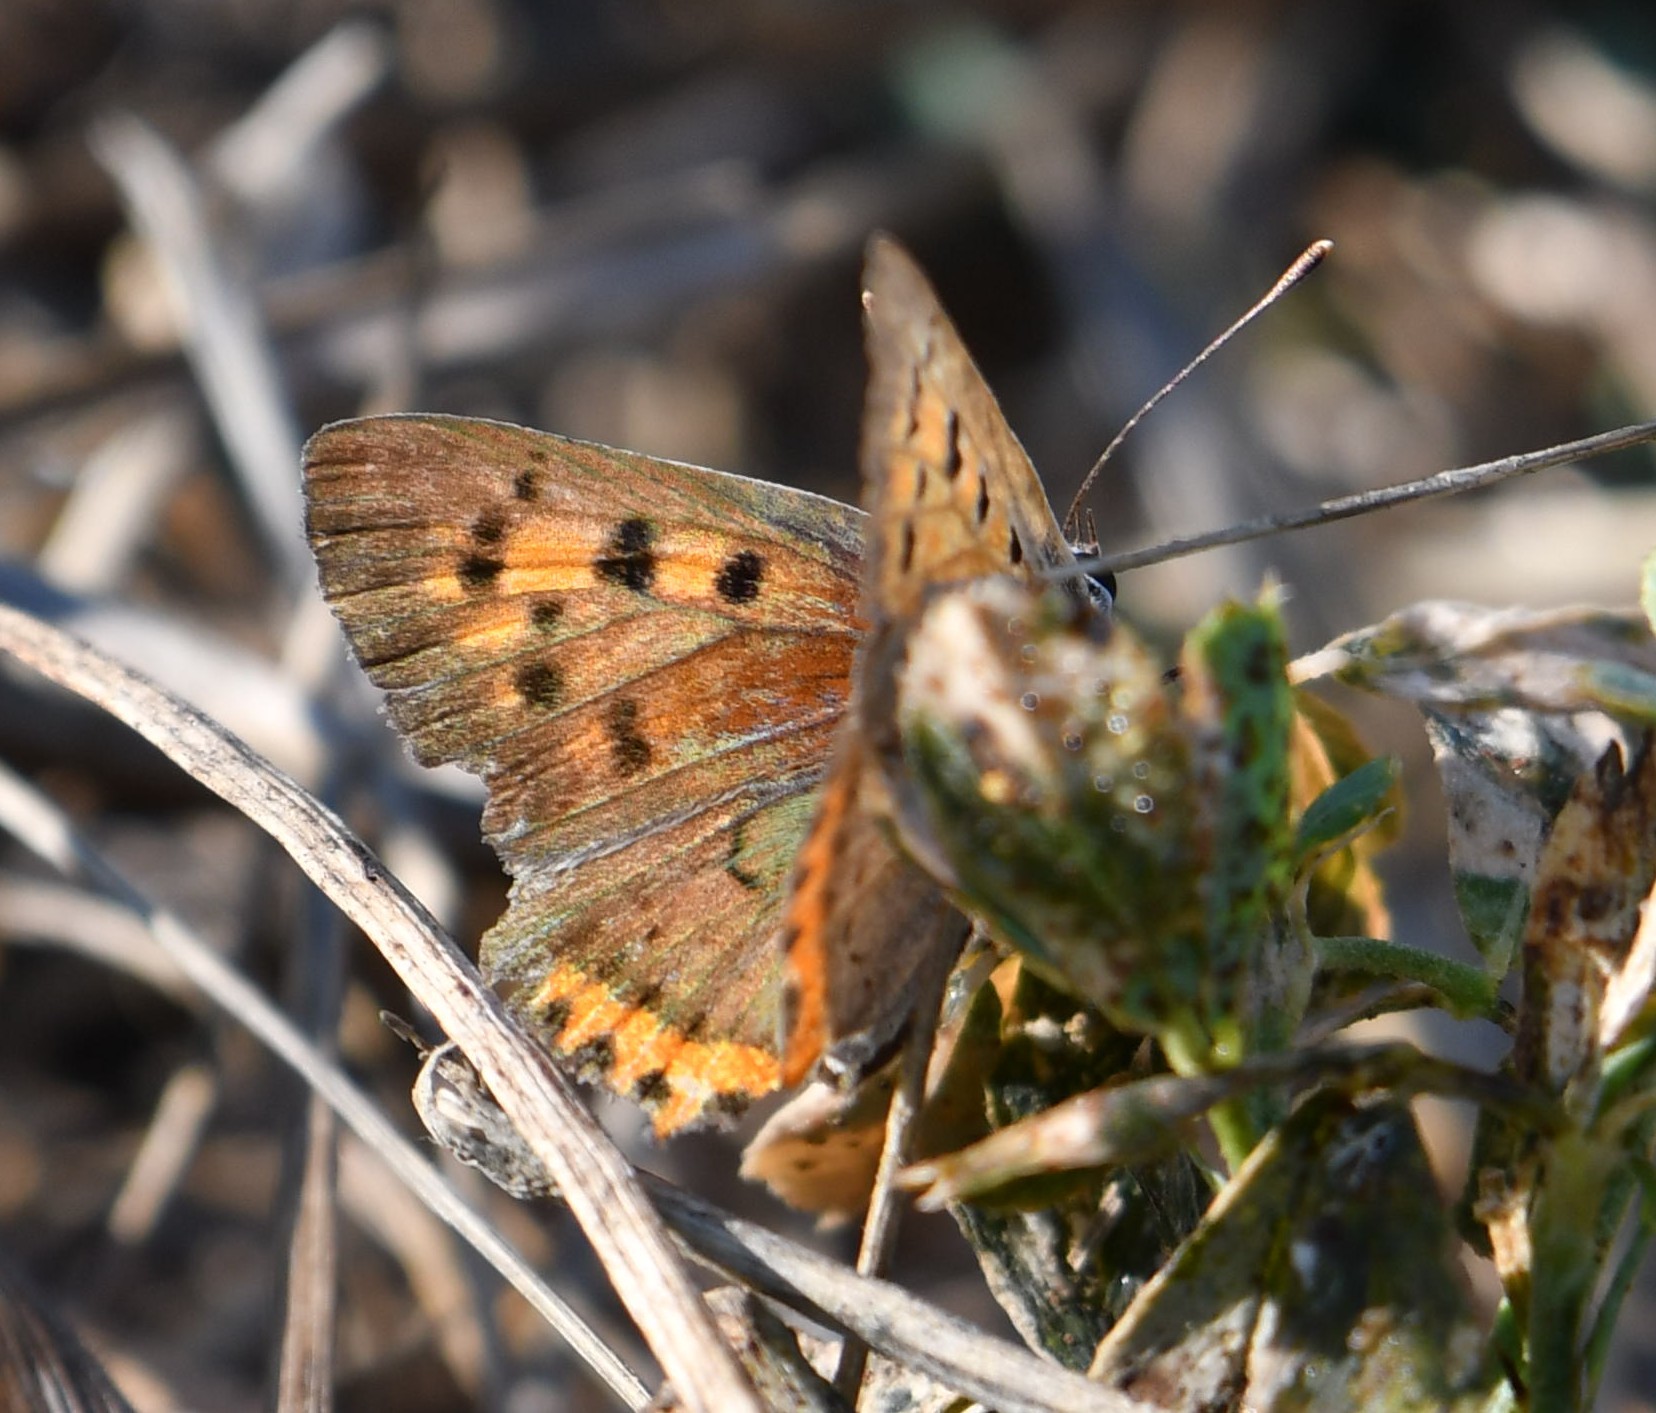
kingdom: Animalia
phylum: Arthropoda
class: Insecta
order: Lepidoptera
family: Lycaenidae
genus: Lycaena
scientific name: Lycaena phlaeas
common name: Small copper
